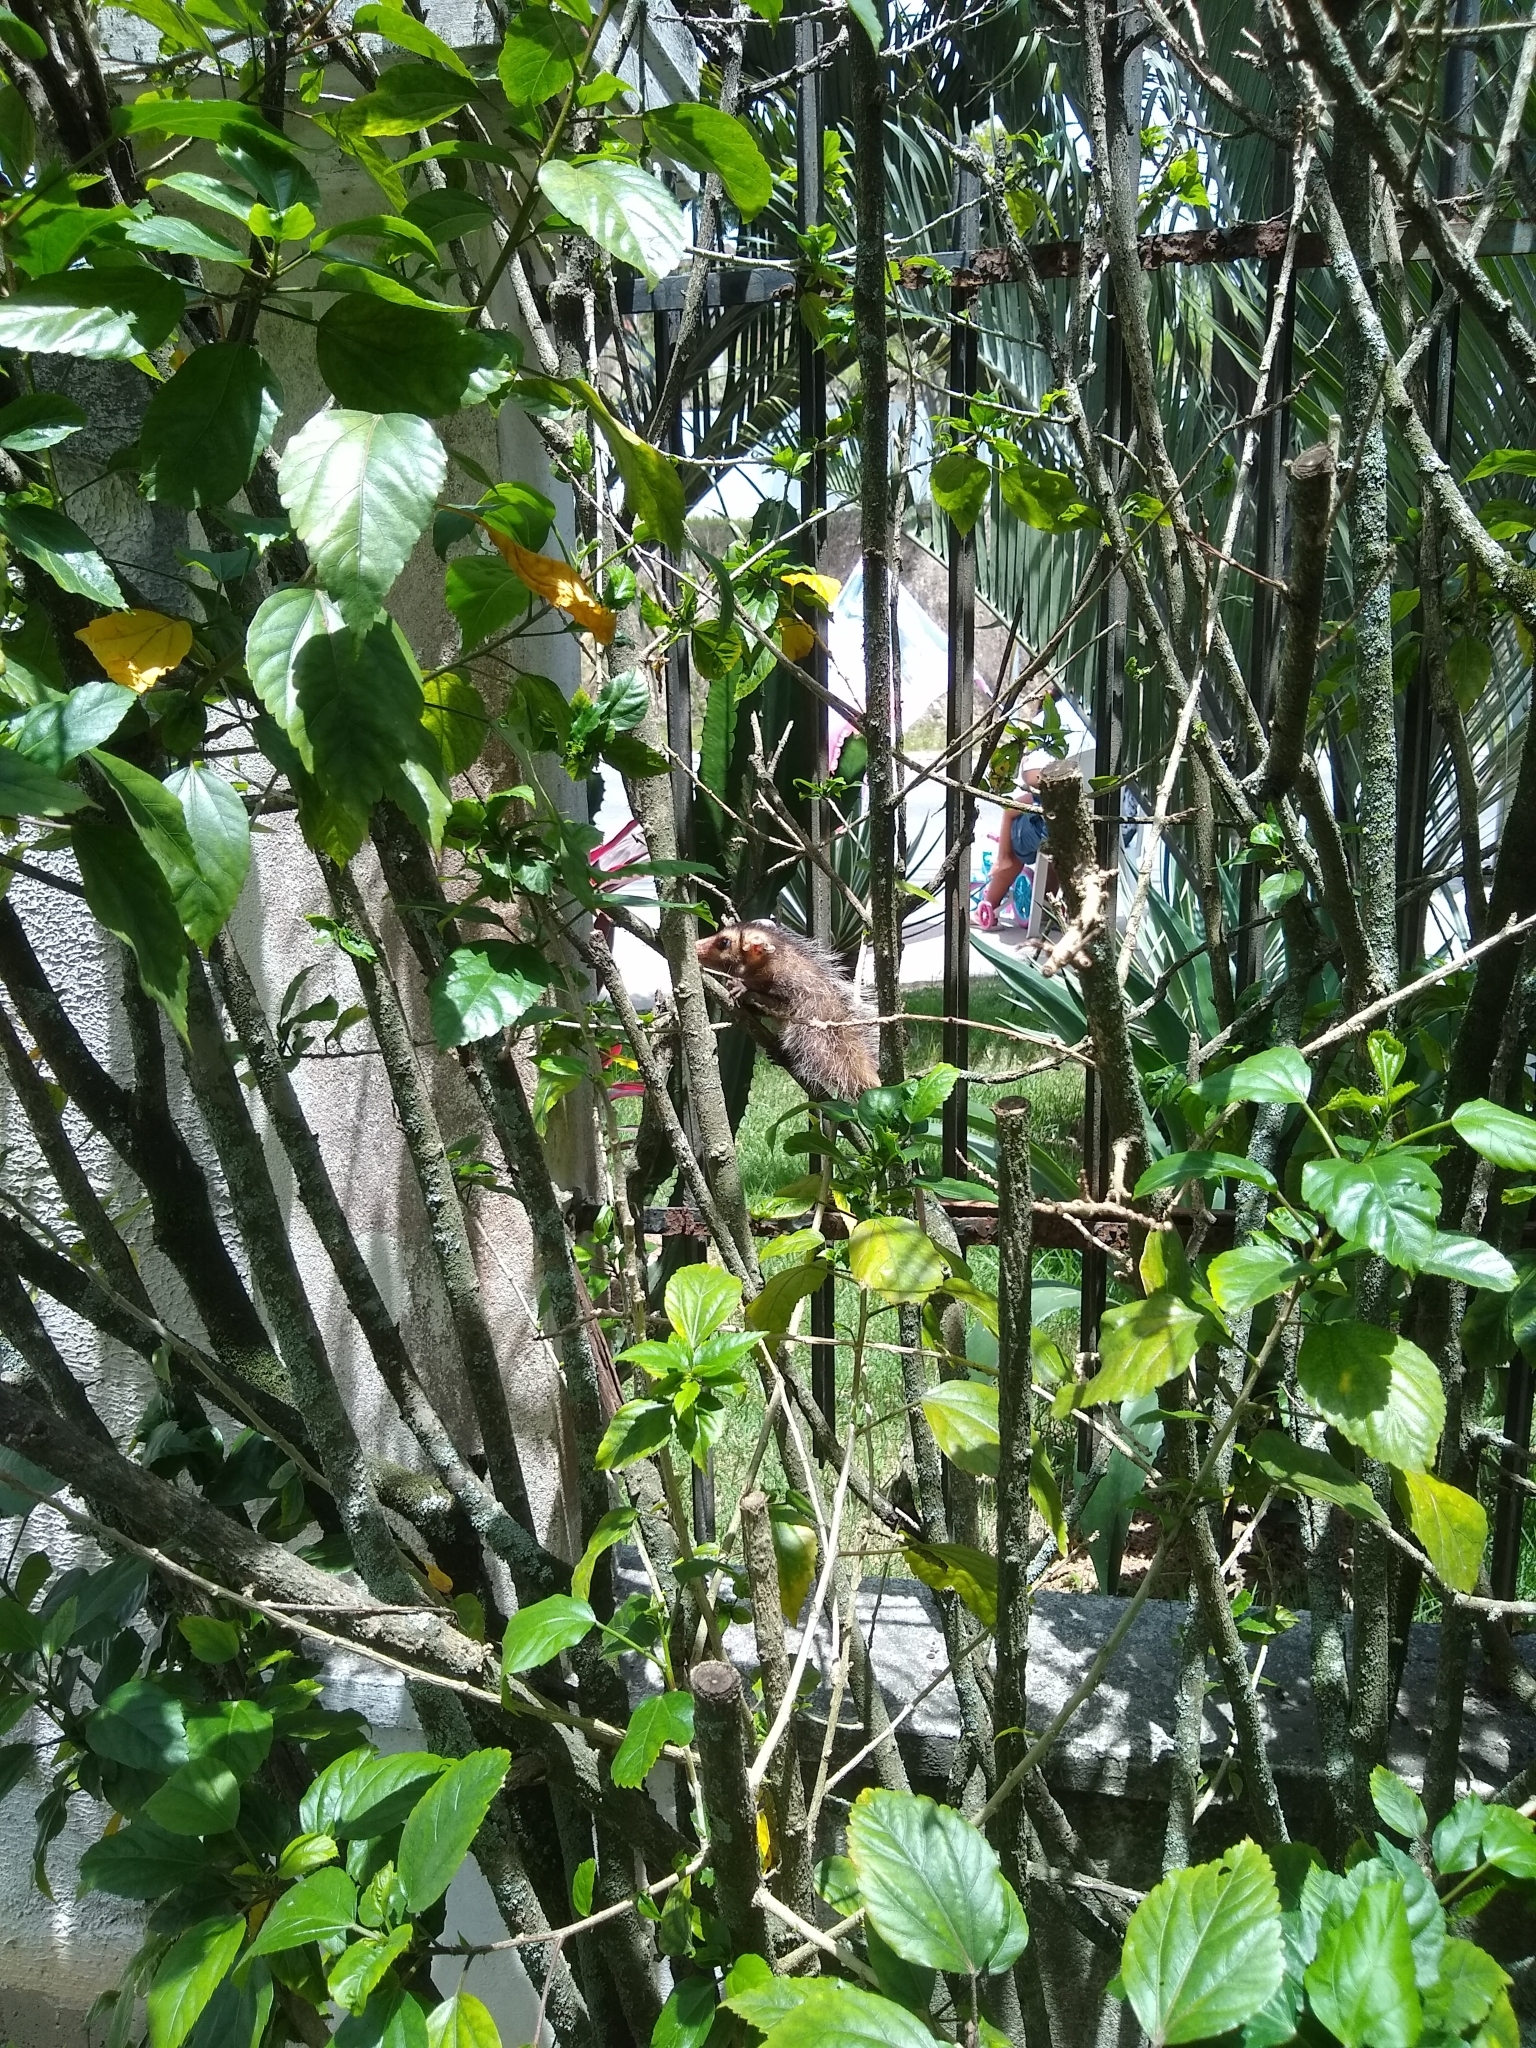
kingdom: Animalia
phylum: Chordata
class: Mammalia
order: Didelphimorphia
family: Didelphidae
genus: Didelphis
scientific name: Didelphis aurita
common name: Big-eared opossum
